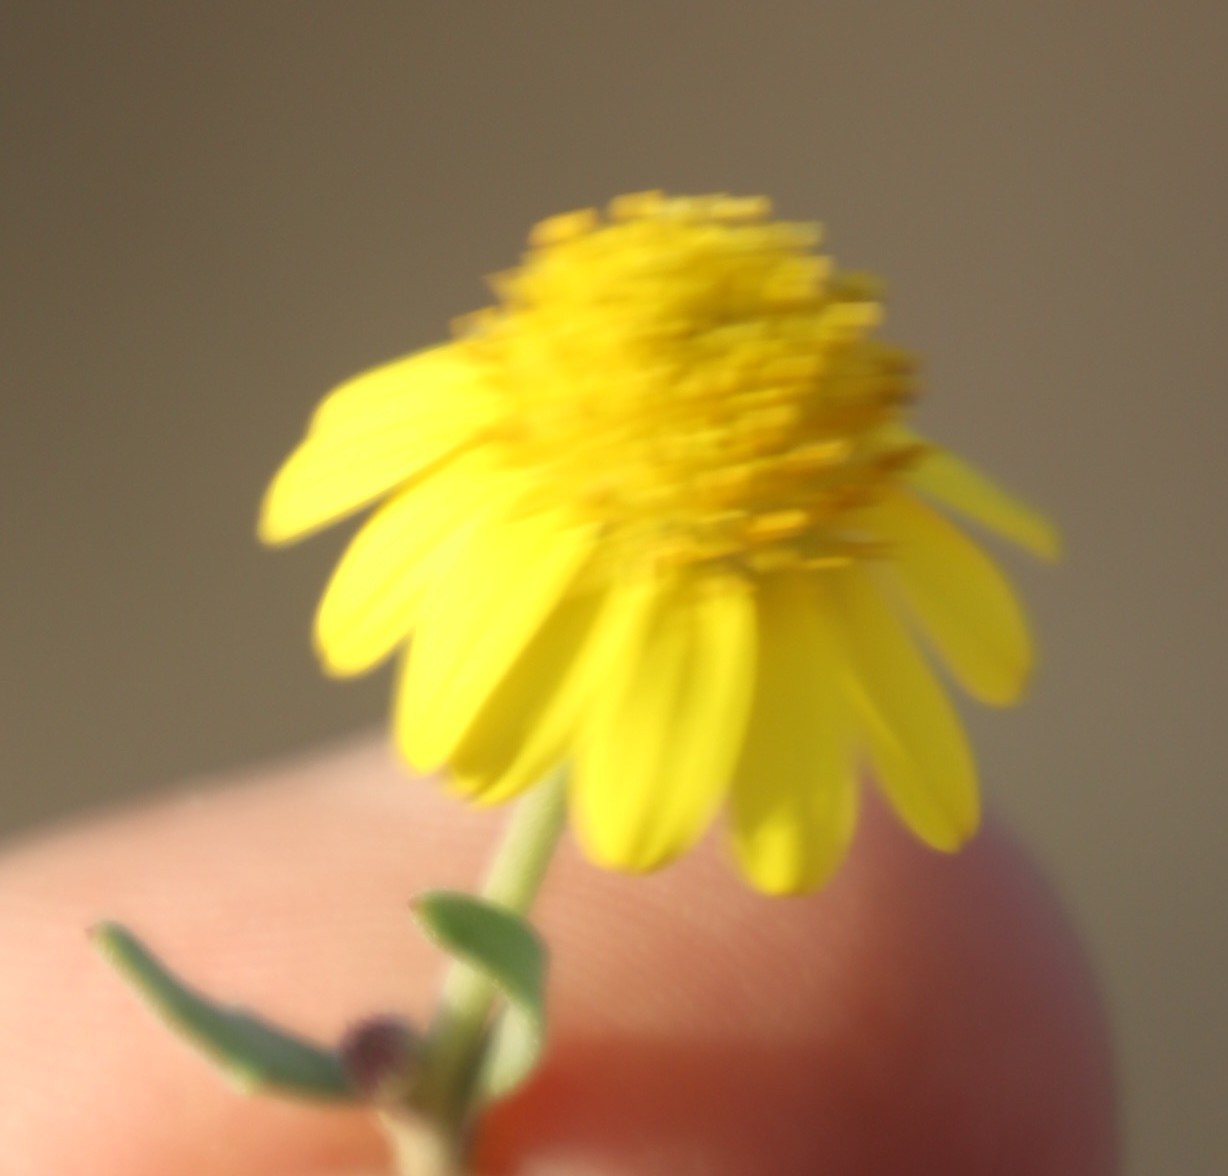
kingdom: Plantae
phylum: Tracheophyta
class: Magnoliopsida
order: Asterales
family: Asteraceae
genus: Osteospermum
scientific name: Osteospermum incanum
